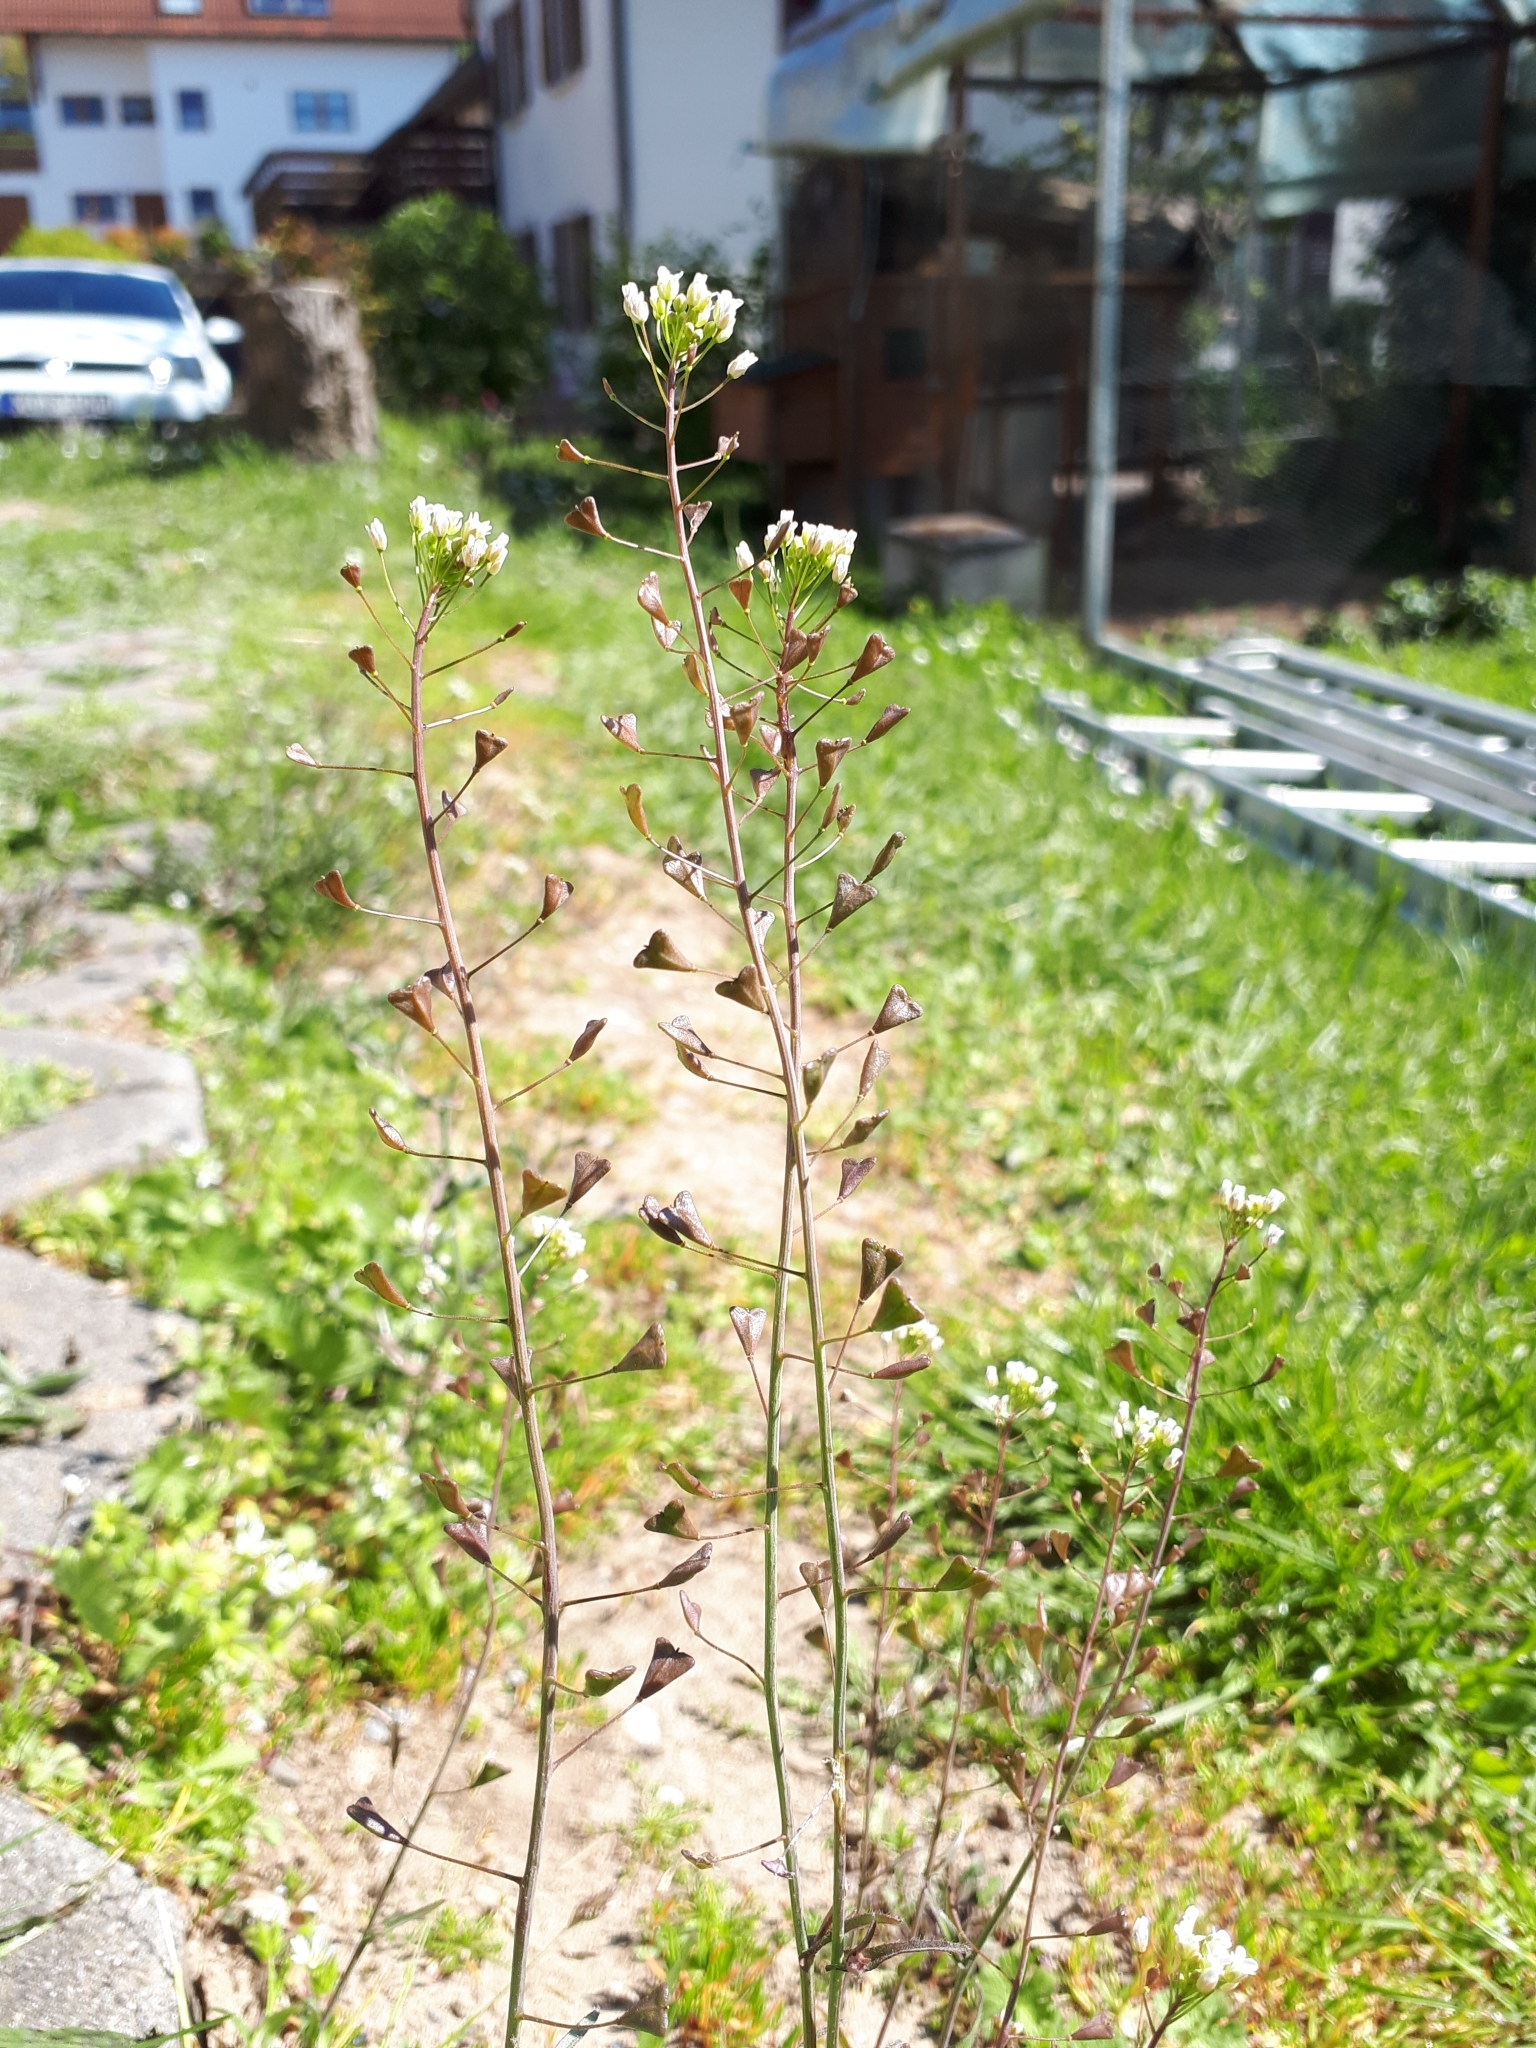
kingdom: Plantae
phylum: Tracheophyta
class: Magnoliopsida
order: Brassicales
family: Brassicaceae
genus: Capsella
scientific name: Capsella bursa-pastoris
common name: Shepherd's purse
